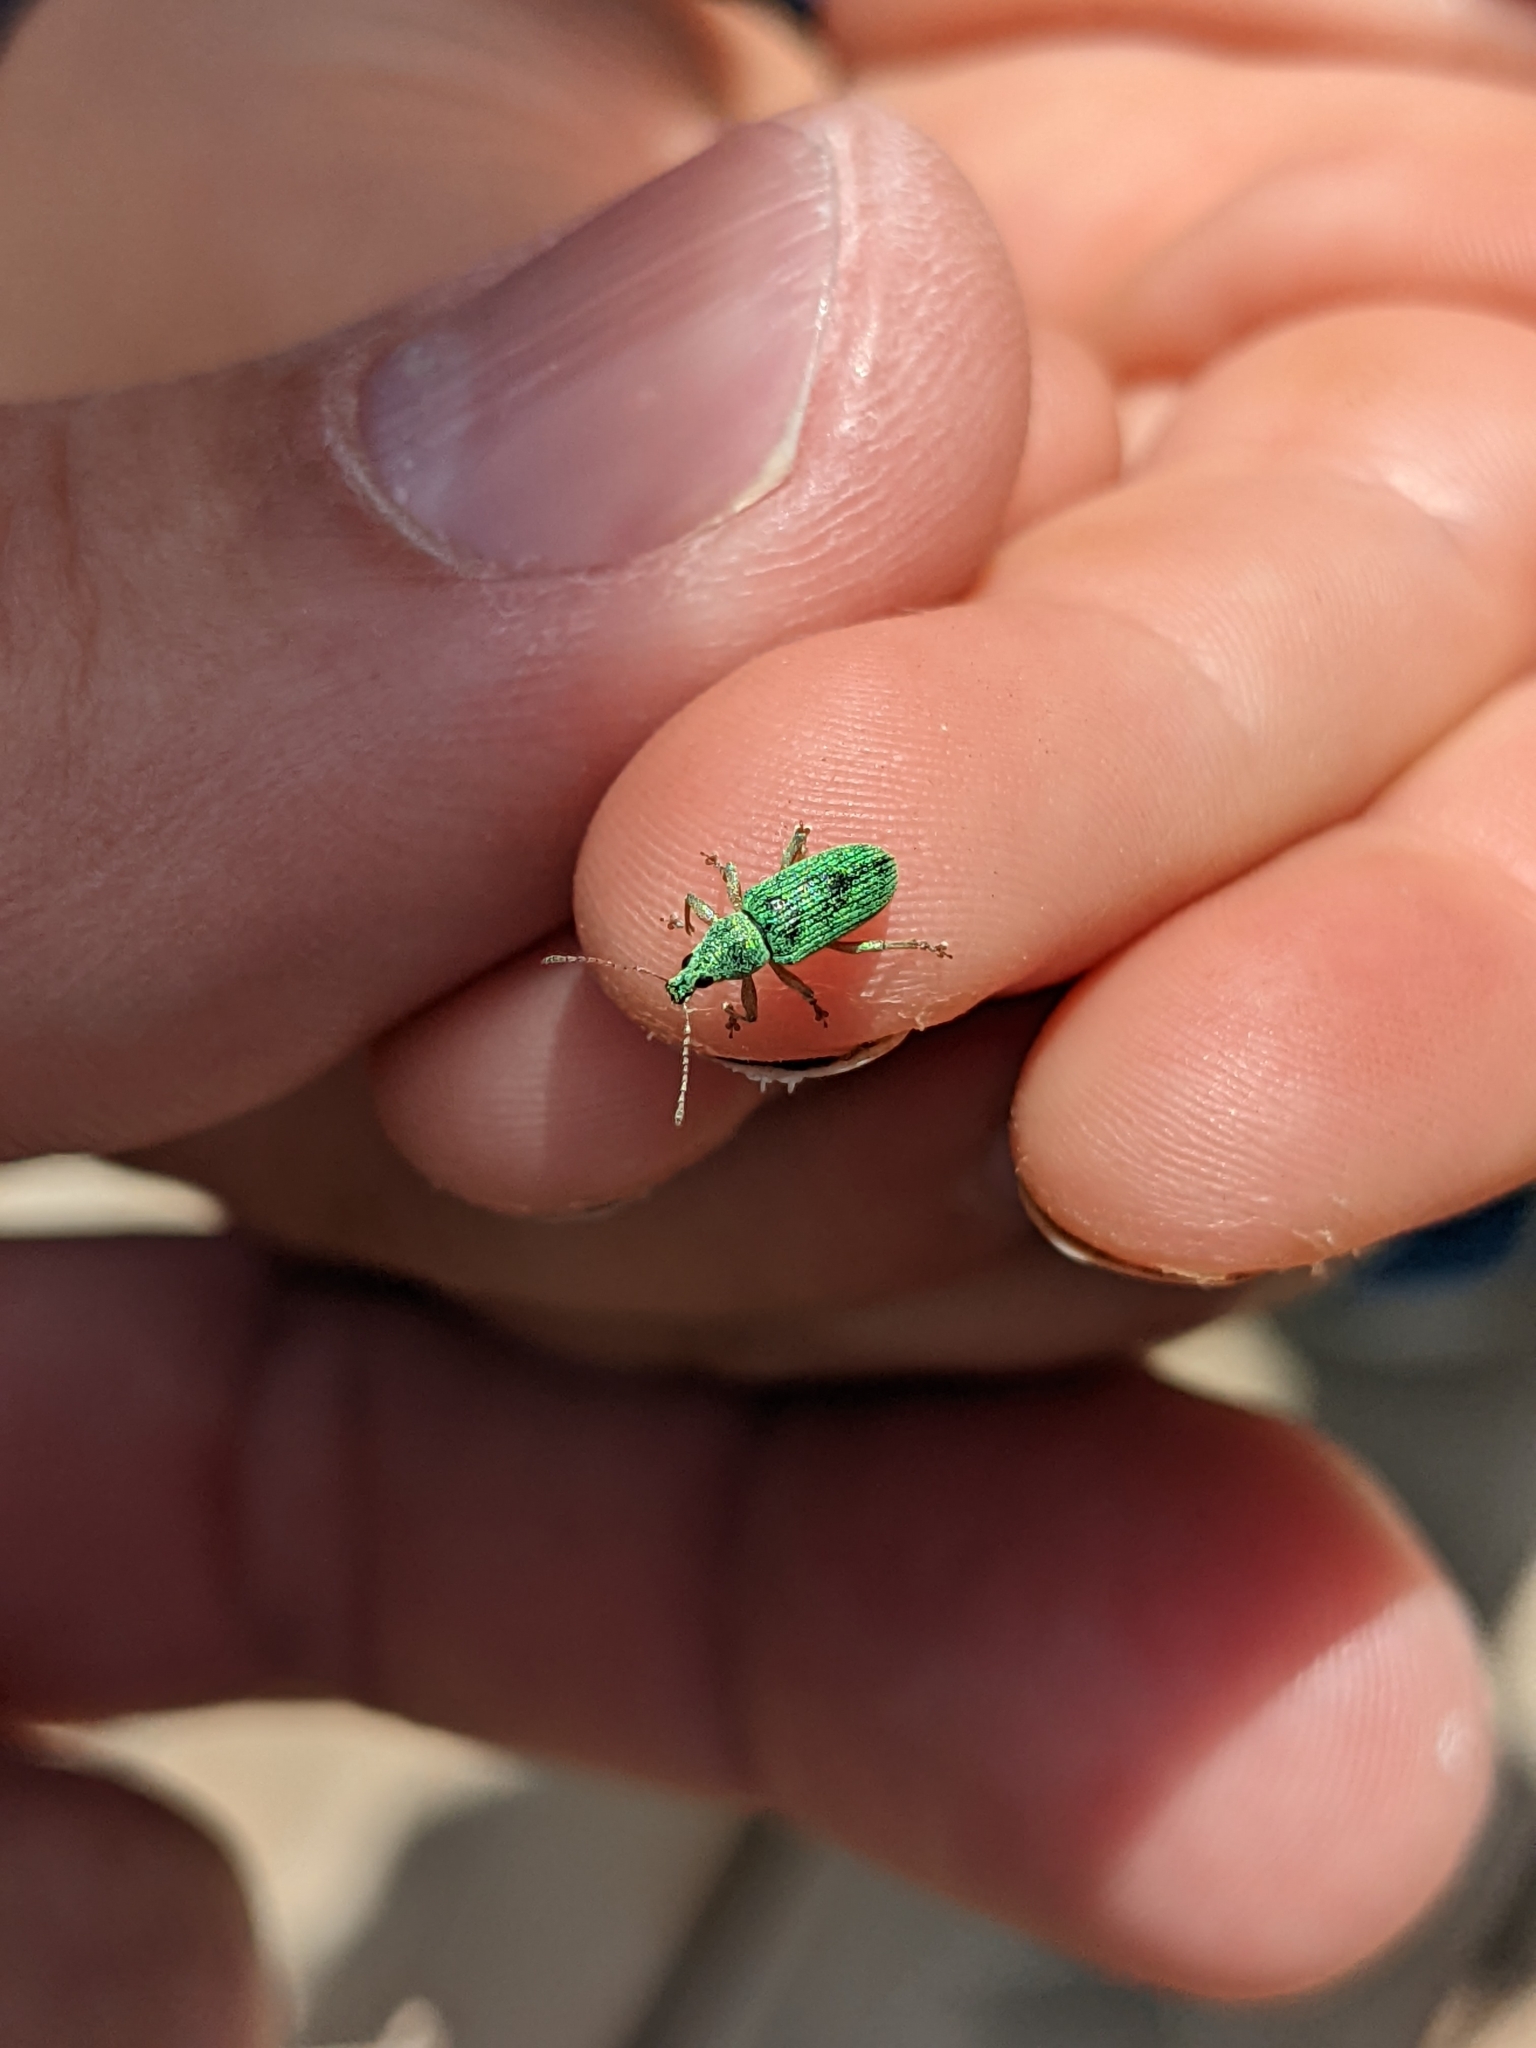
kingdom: Animalia
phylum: Arthropoda
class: Insecta
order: Coleoptera
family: Curculionidae
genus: Polydrusus
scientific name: Polydrusus formosus
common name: Weevil
